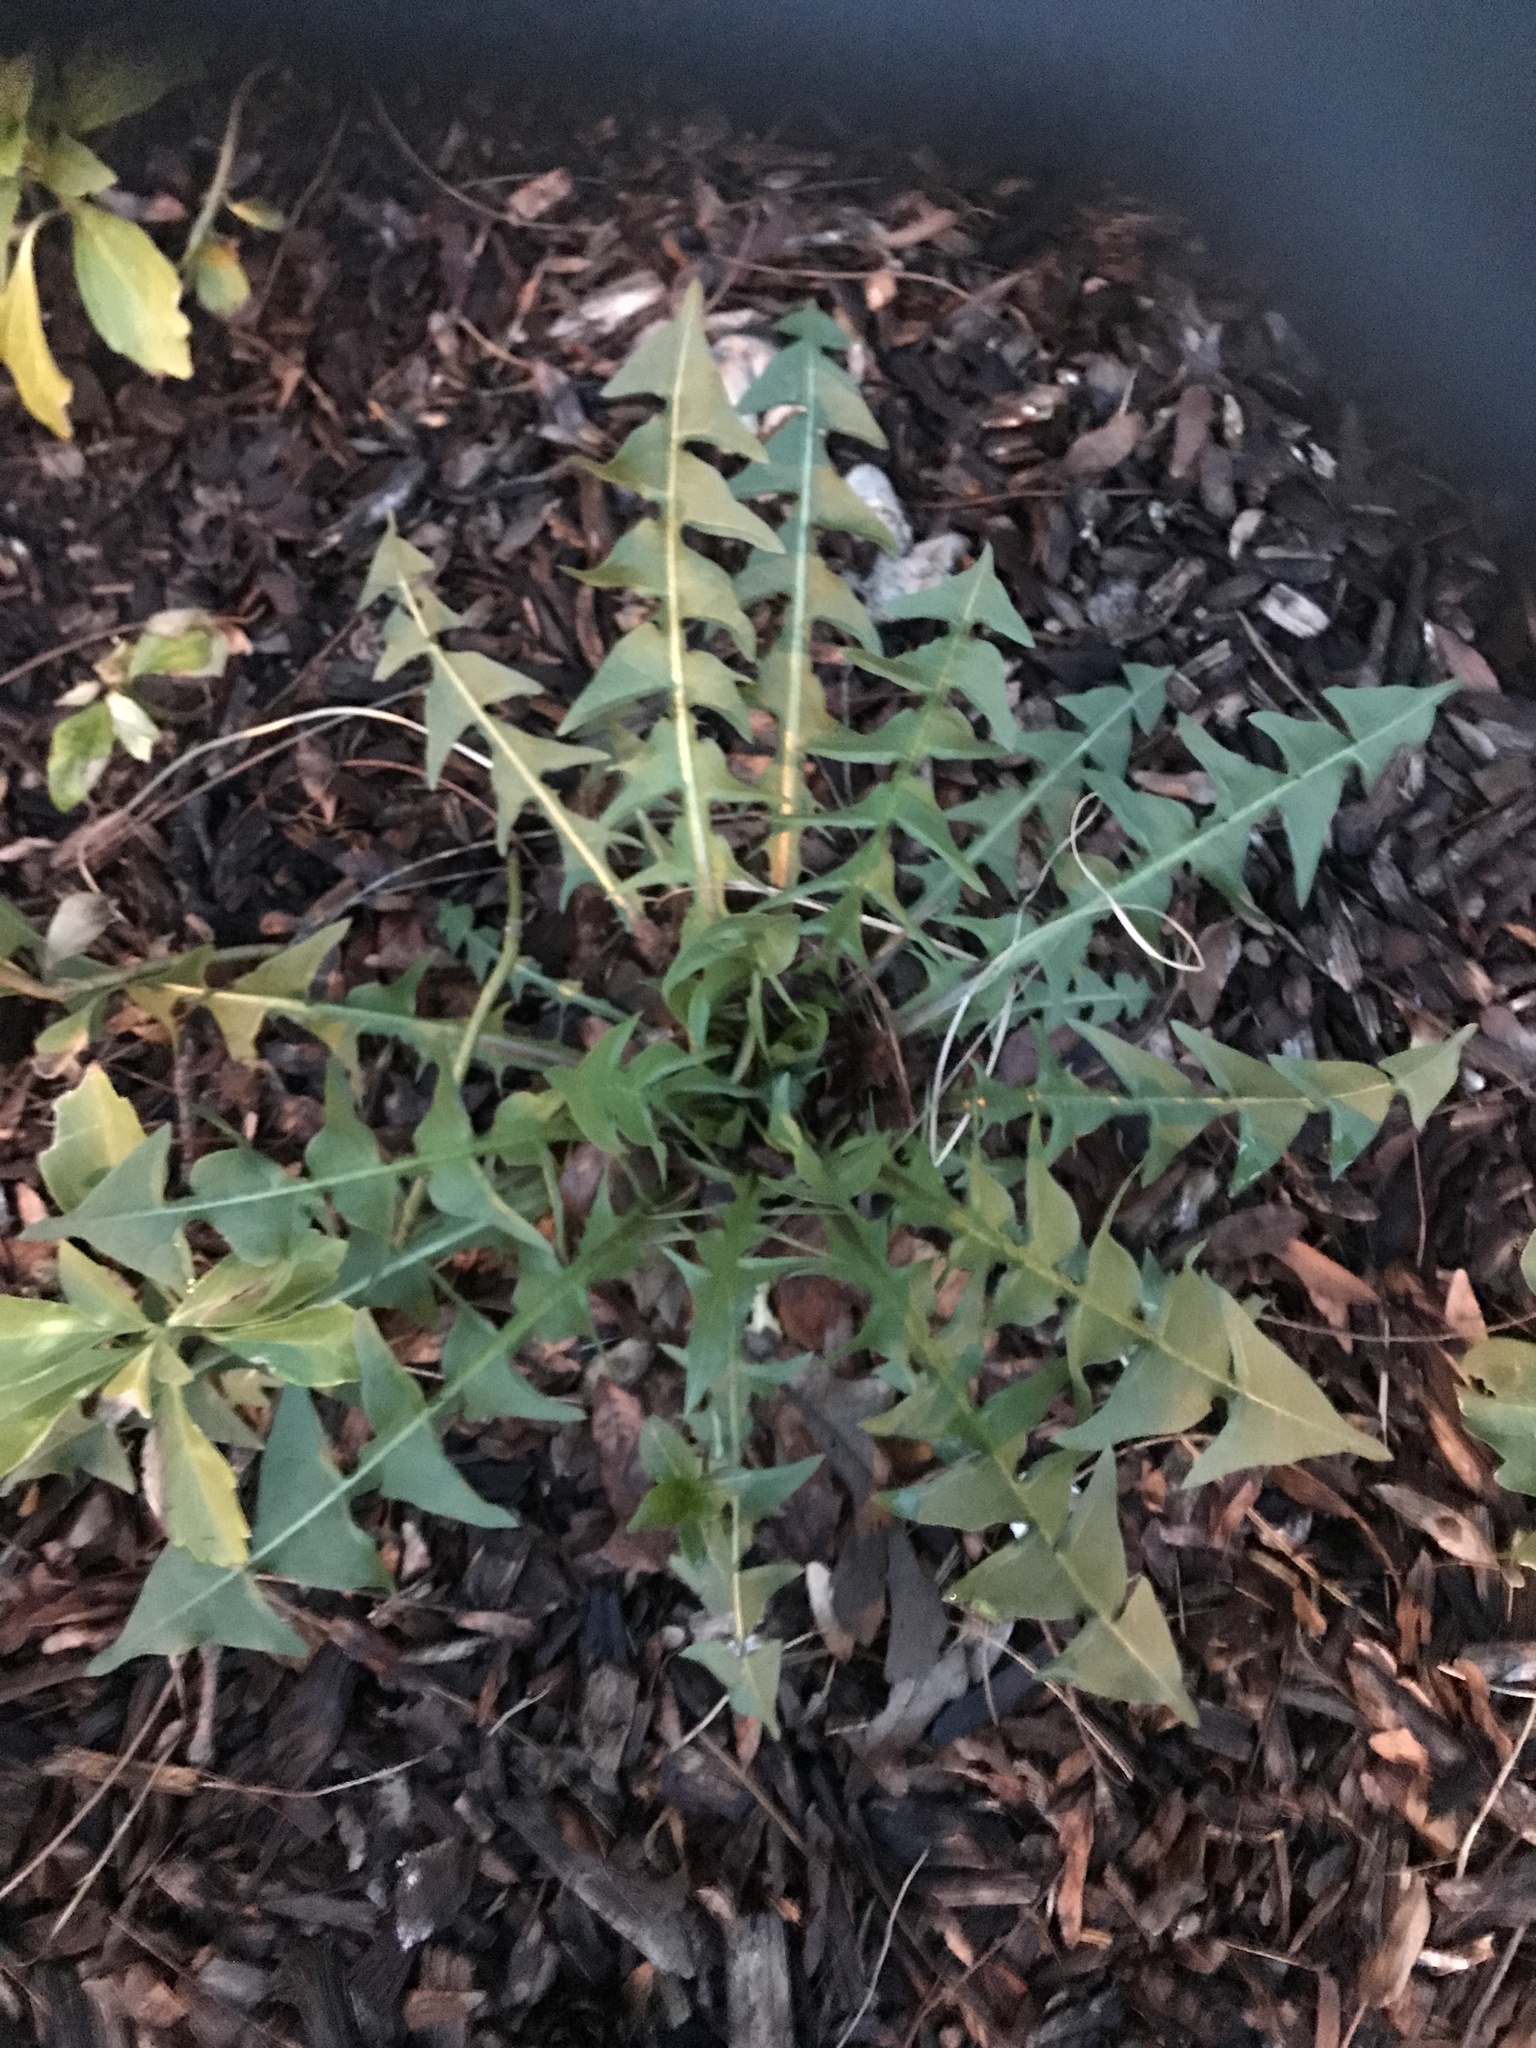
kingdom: Plantae
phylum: Tracheophyta
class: Magnoliopsida
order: Asterales
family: Asteraceae
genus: Taraxacum
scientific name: Taraxacum erythrospermum
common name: Rock dandelion
